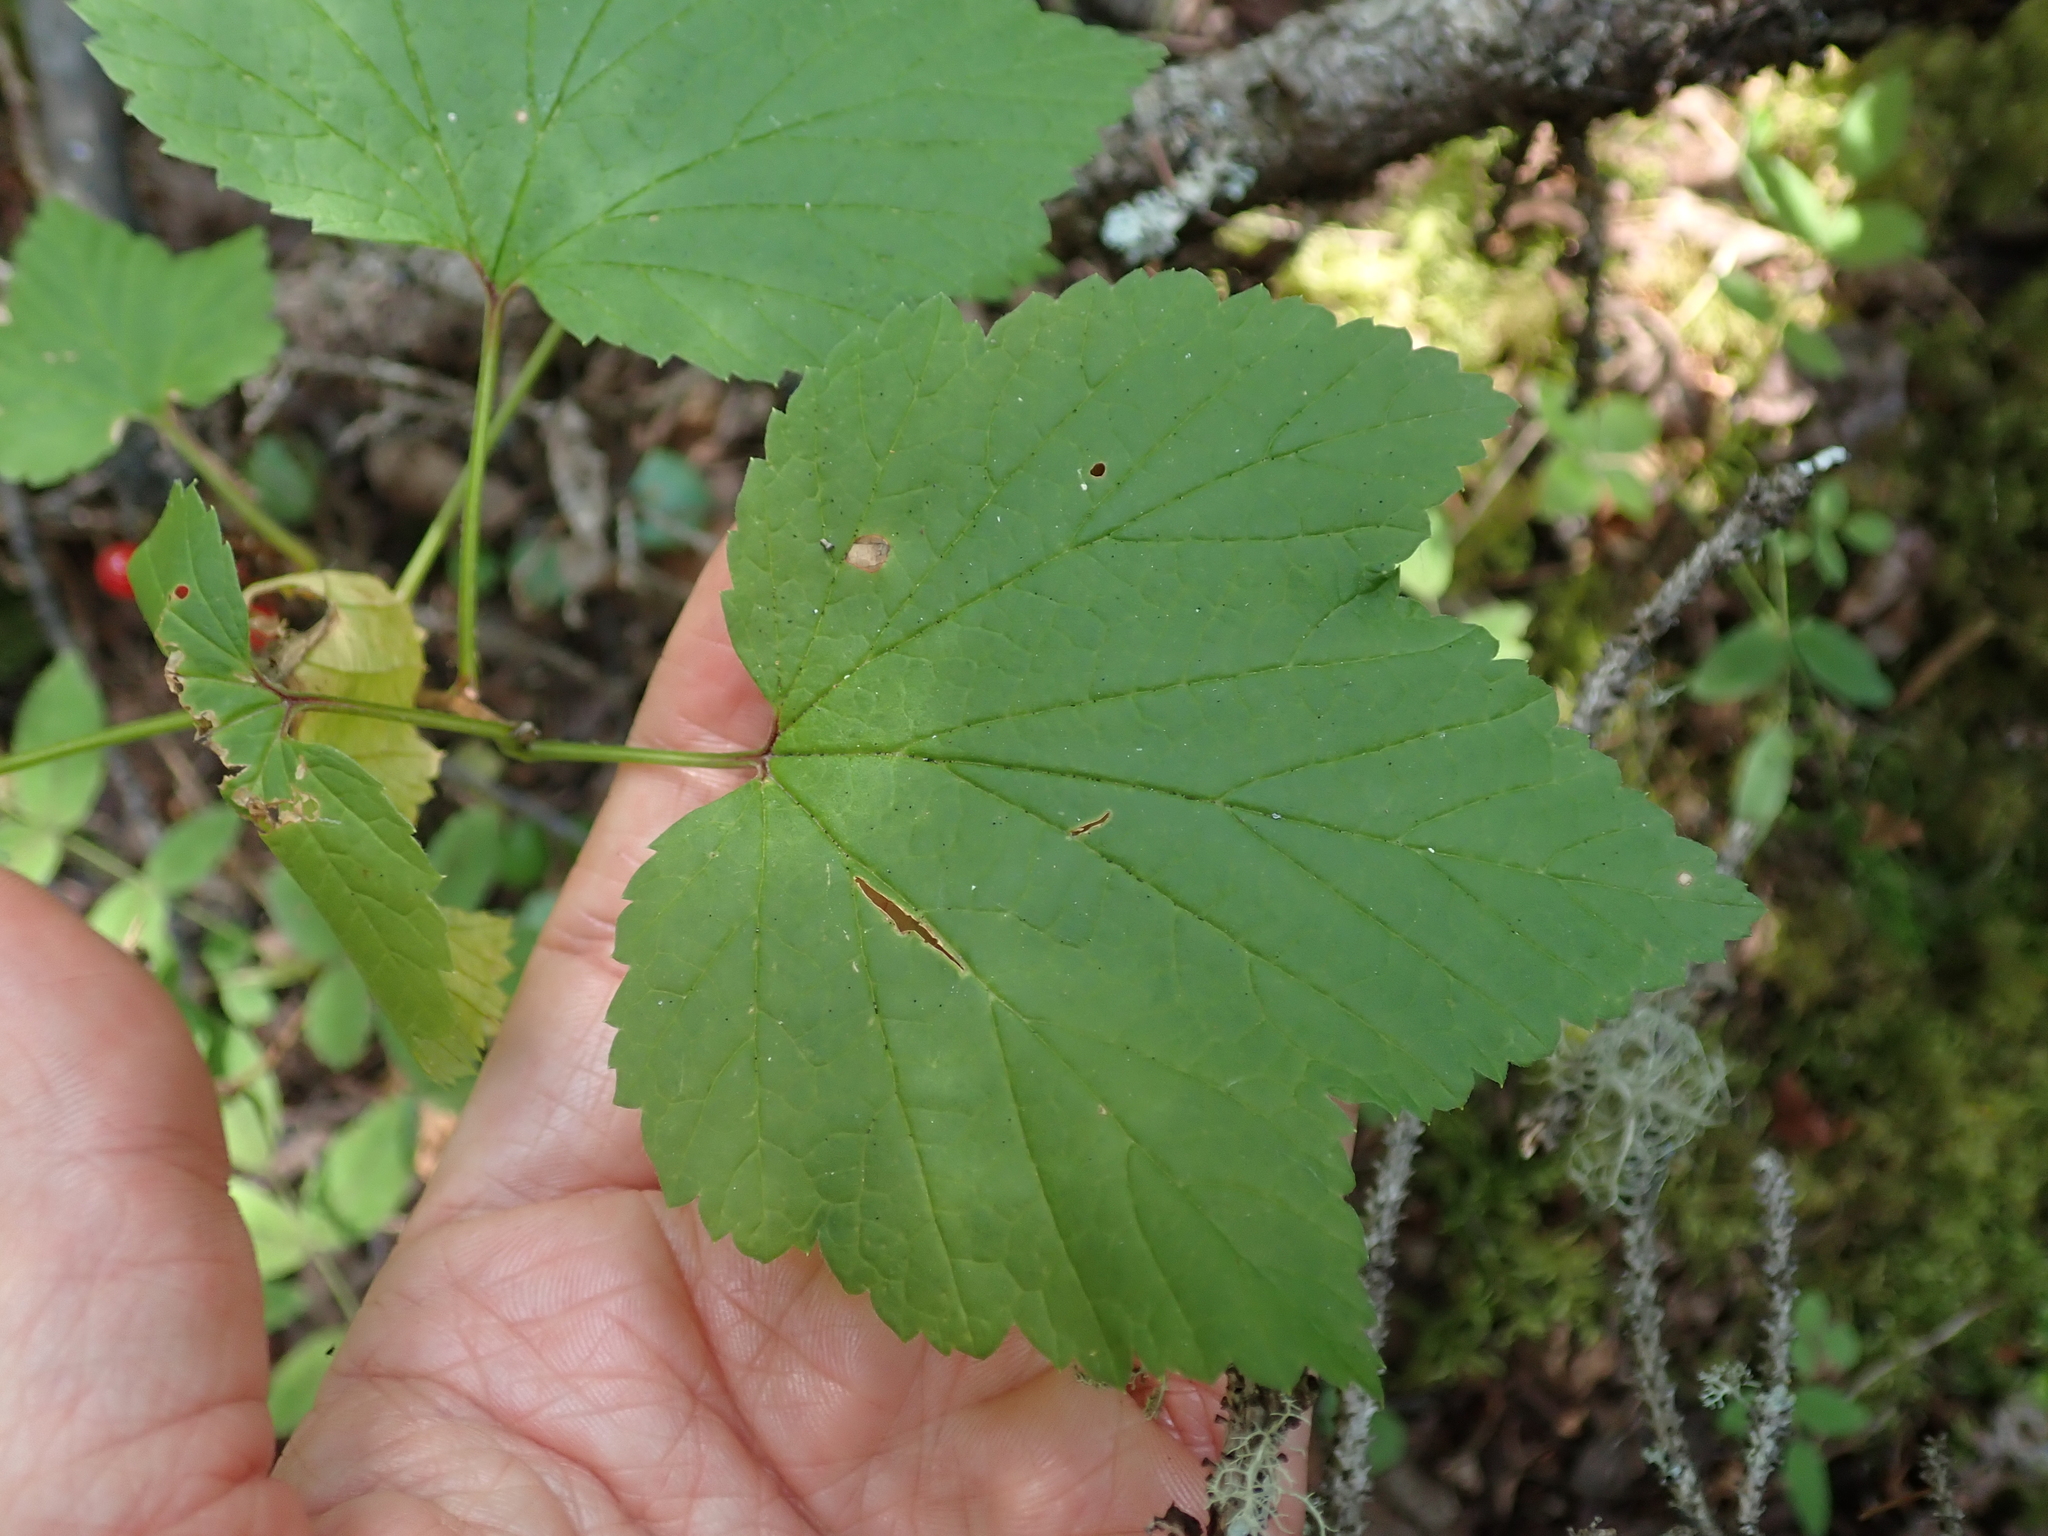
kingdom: Plantae
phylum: Tracheophyta
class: Magnoliopsida
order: Saxifragales
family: Grossulariaceae
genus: Ribes
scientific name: Ribes triste
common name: Swamp red currant
